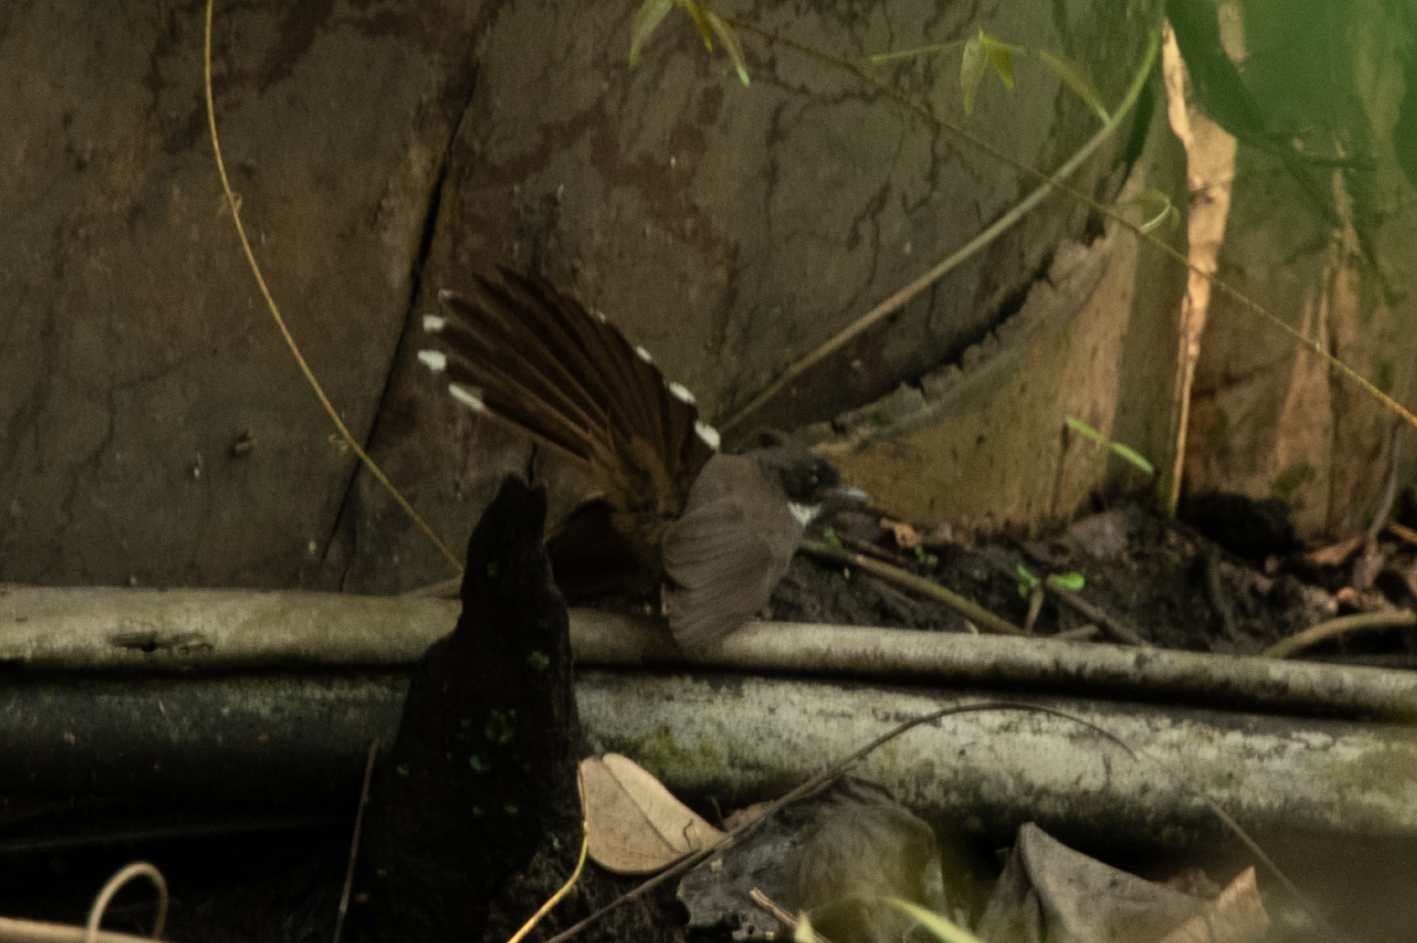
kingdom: Animalia
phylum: Chordata
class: Aves
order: Passeriformes
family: Rhipiduridae
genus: Rhipidura
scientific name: Rhipidura javanica
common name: Pied fantail
